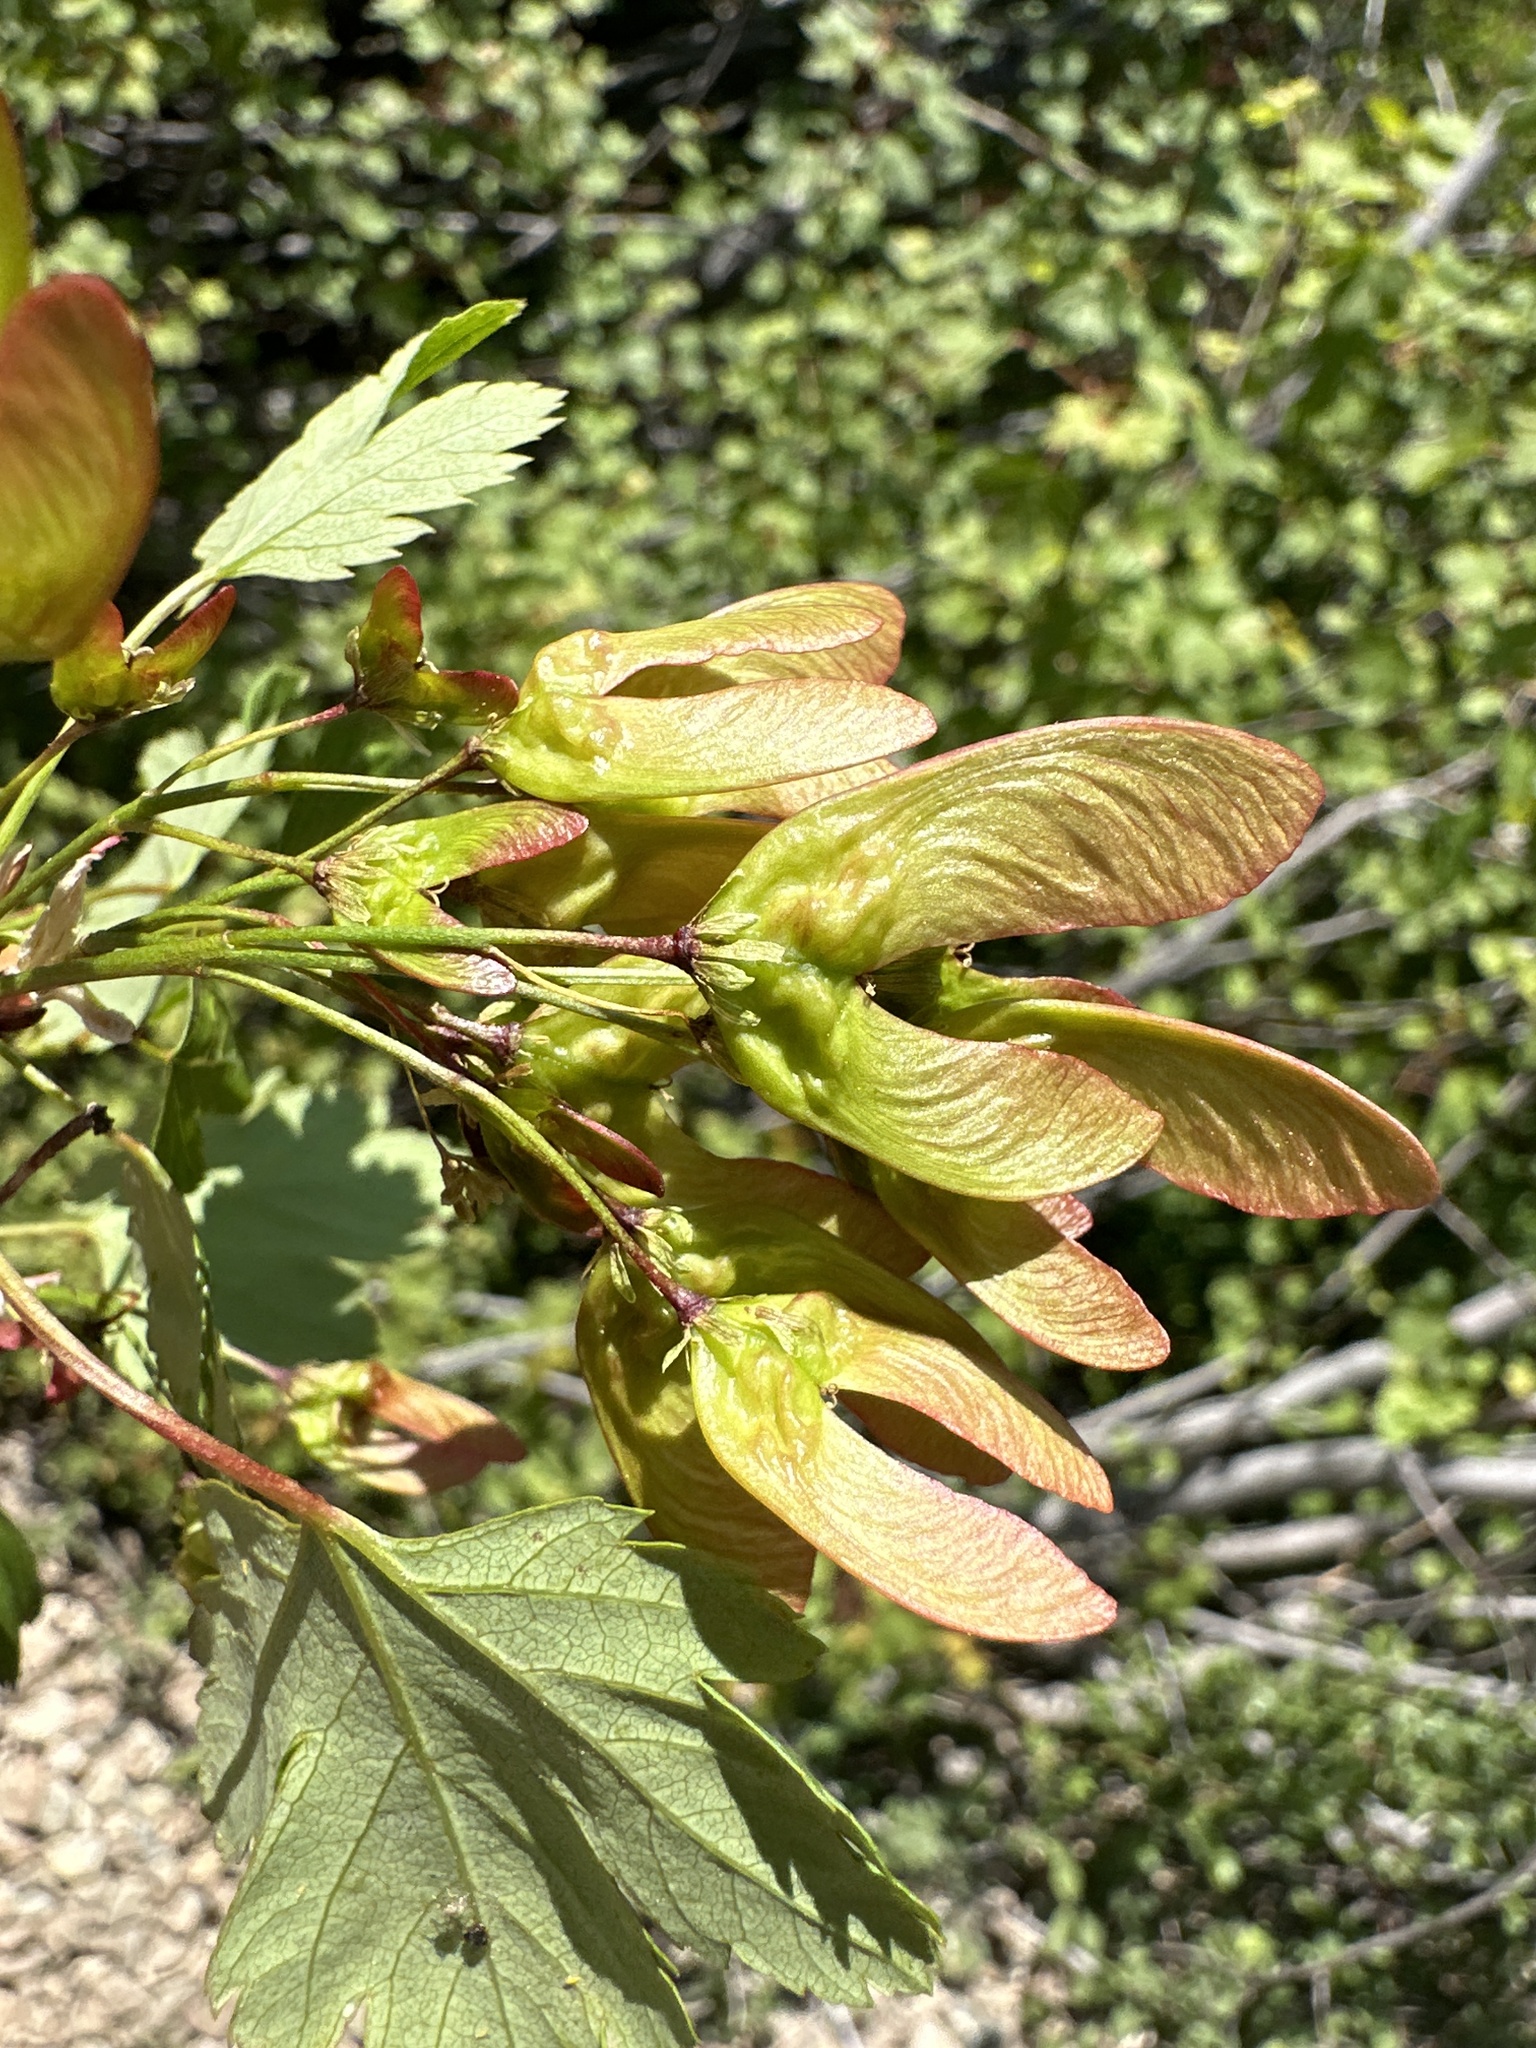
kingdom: Plantae
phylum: Tracheophyta
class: Magnoliopsida
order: Sapindales
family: Sapindaceae
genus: Acer
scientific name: Acer glabrum
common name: Rocky mountain maple
